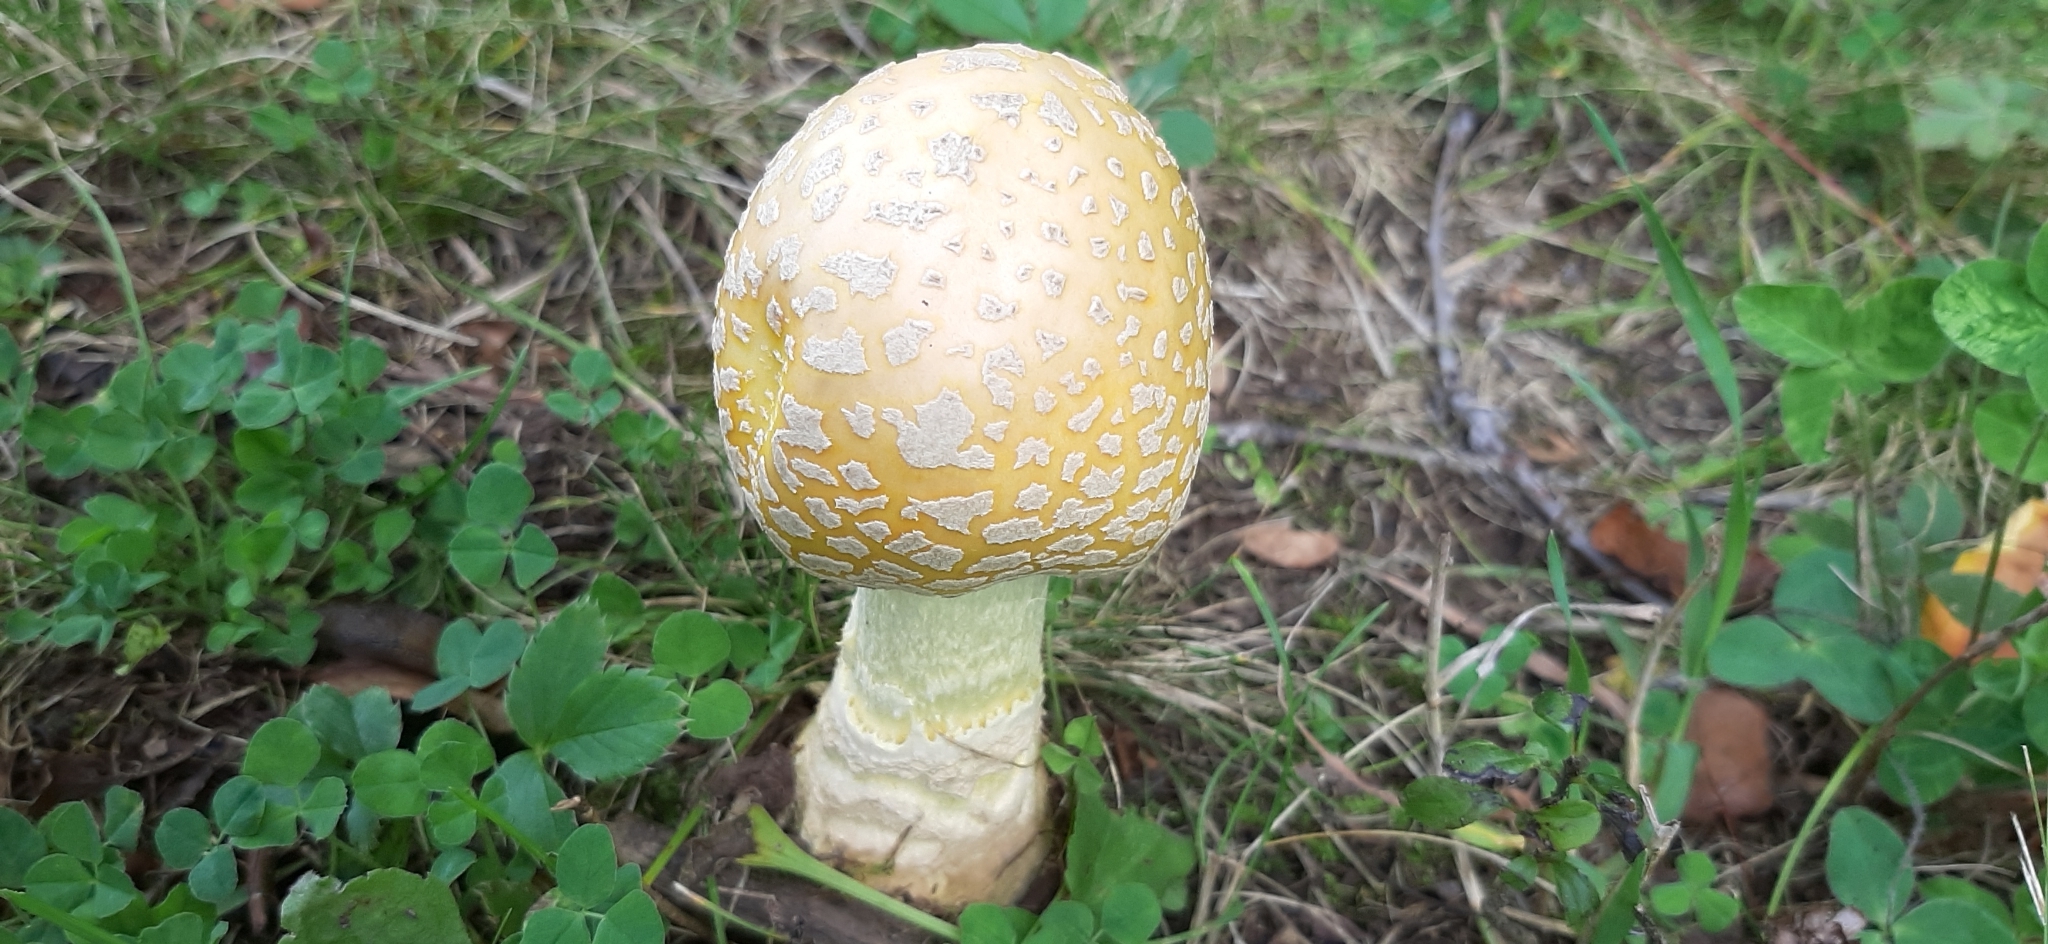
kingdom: Fungi
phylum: Basidiomycota
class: Agaricomycetes
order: Agaricales
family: Amanitaceae
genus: Amanita
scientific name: Amanita muscaria
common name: Fly agaric
